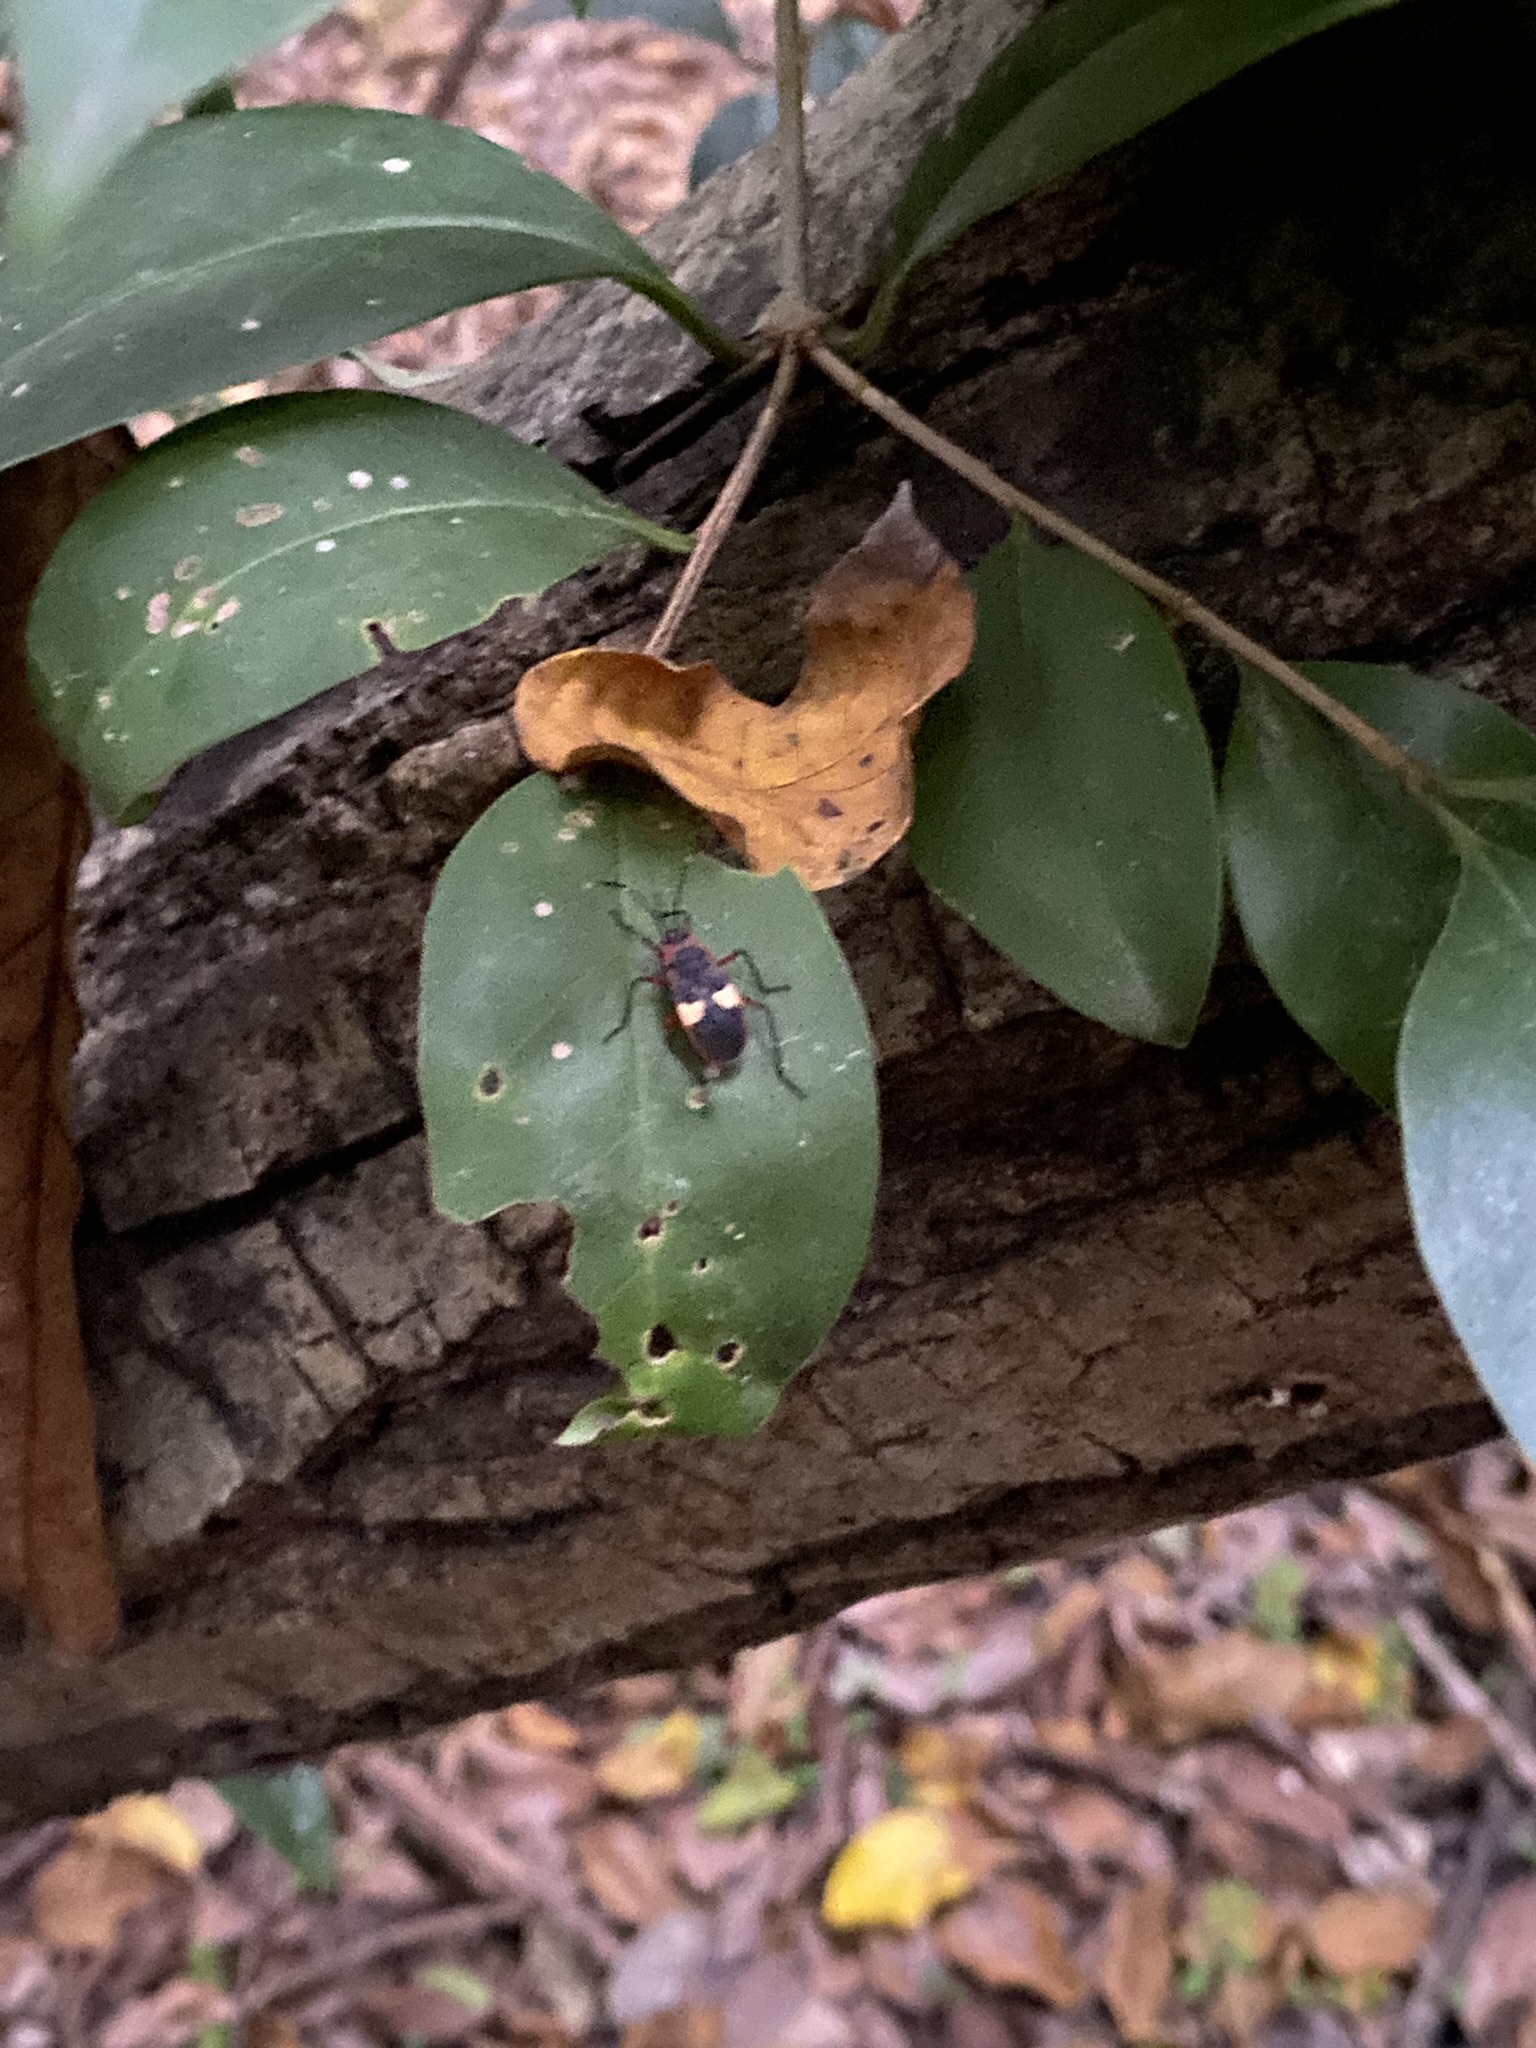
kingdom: Animalia
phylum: Arthropoda
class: Insecta
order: Hemiptera
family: Pyrrhocoridae
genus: Dysdercus
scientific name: Dysdercus albofasciatus
